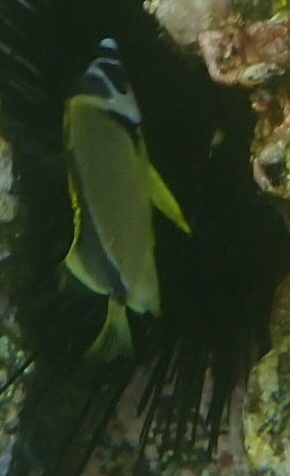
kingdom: Animalia
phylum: Chordata
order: Perciformes
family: Chaetodontidae
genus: Johnrandallia
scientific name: Johnrandallia nigrirostris
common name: Barberfish
